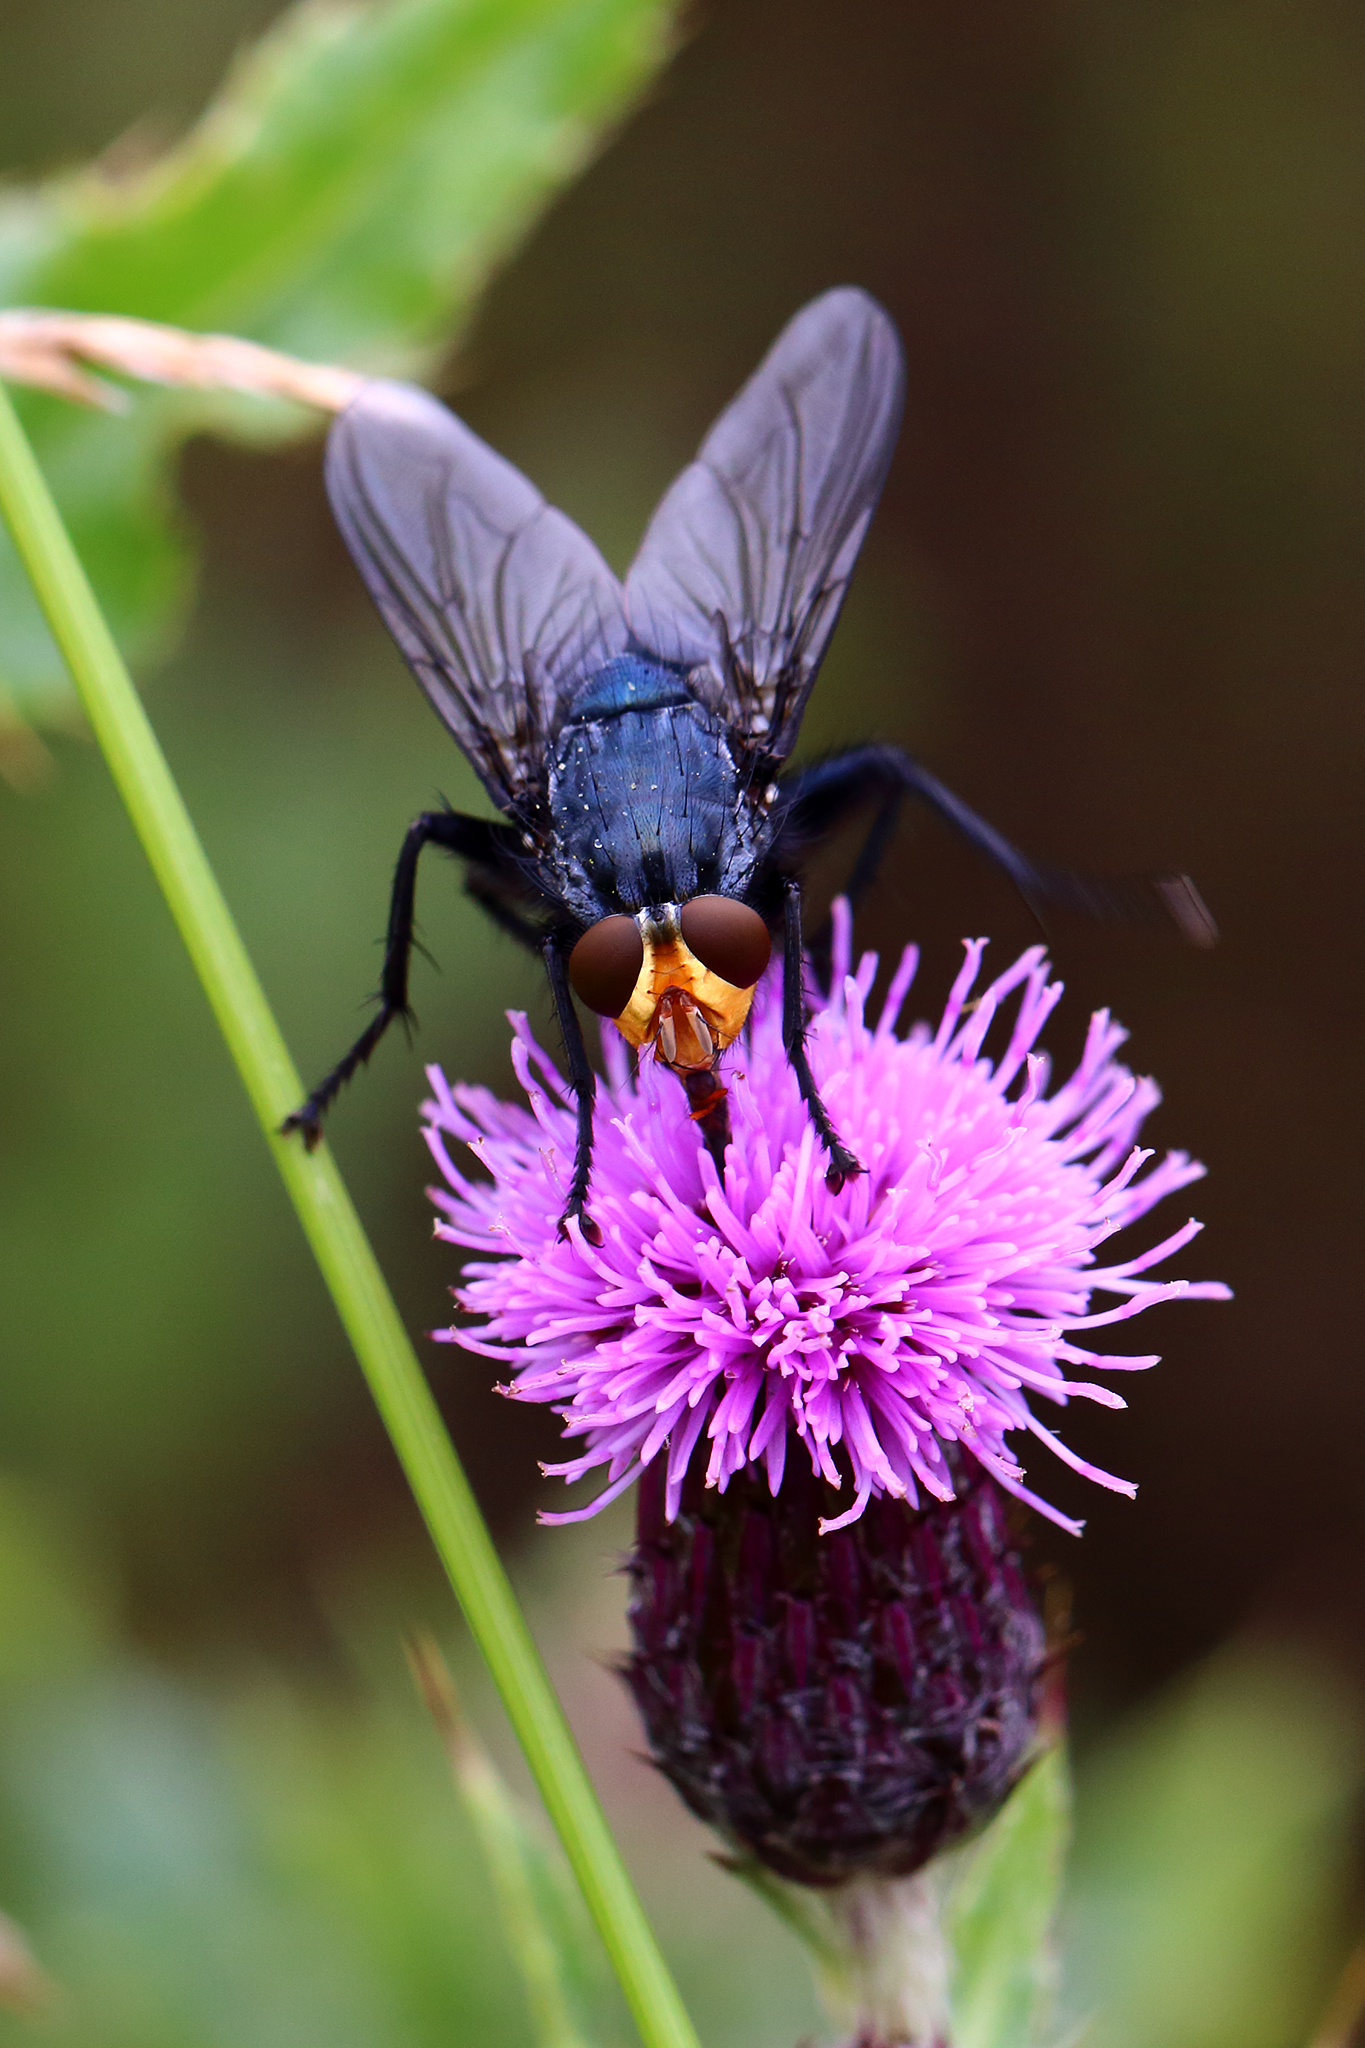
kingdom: Animalia
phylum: Arthropoda
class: Insecta
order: Diptera
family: Calliphoridae
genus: Cynomya
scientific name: Cynomya mortuorum
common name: Bluebottle blow fly
